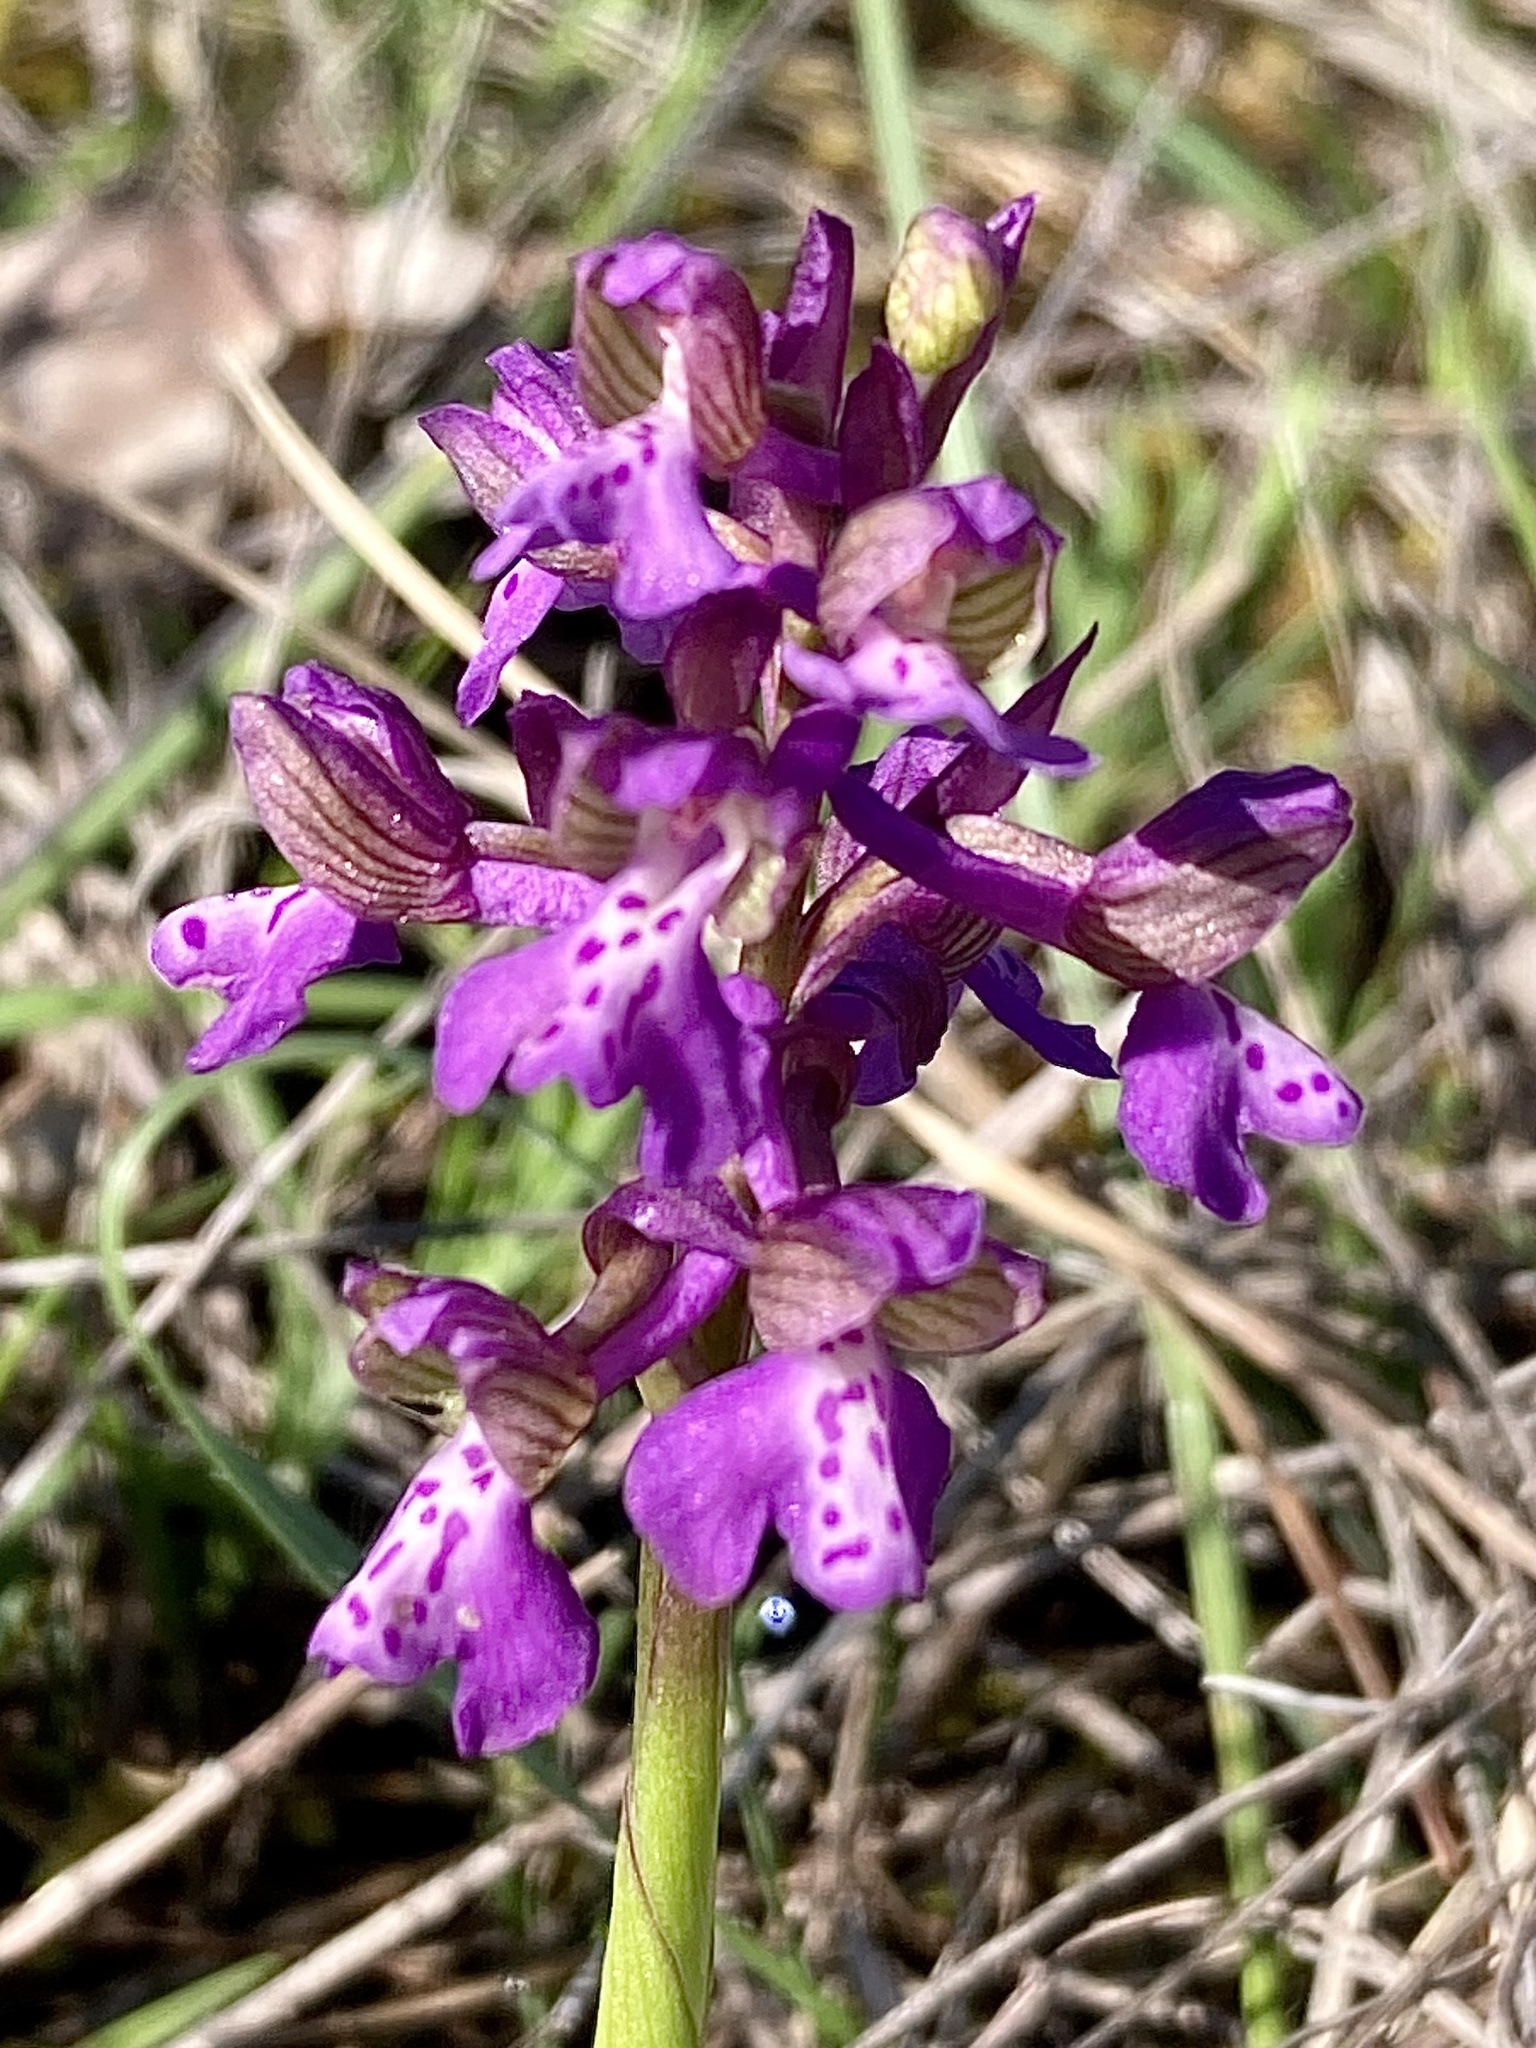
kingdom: Plantae
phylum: Tracheophyta
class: Liliopsida
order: Asparagales
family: Orchidaceae
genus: Anacamptis
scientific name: Anacamptis morio
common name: Green-winged orchid
